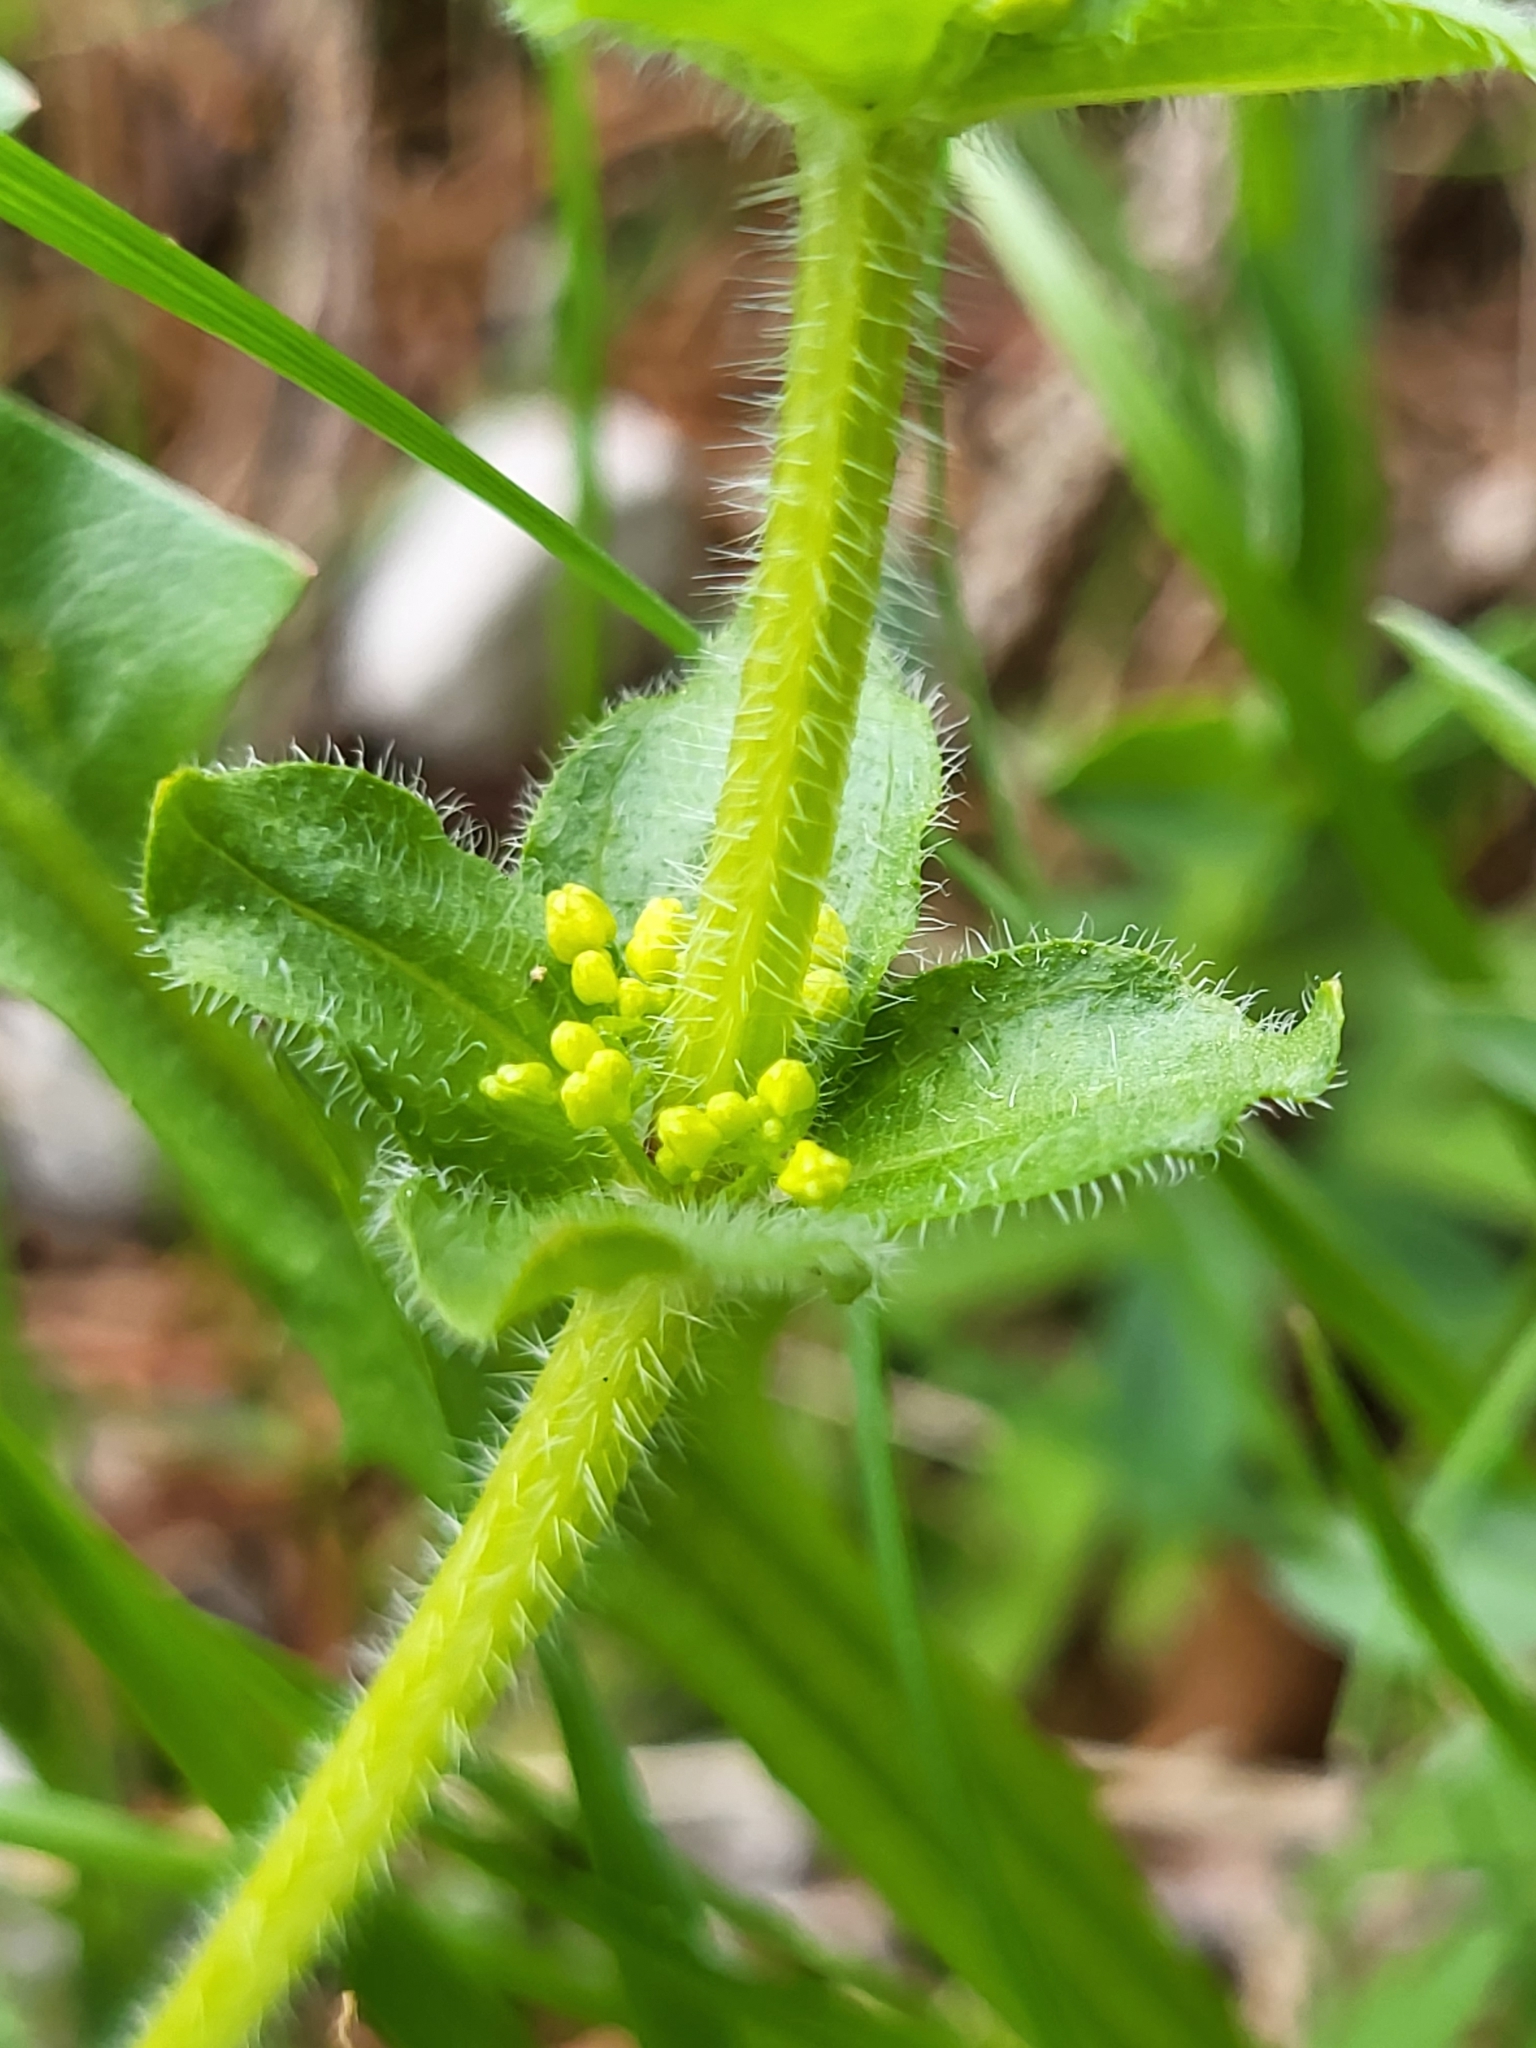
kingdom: Plantae
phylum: Tracheophyta
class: Magnoliopsida
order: Gentianales
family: Rubiaceae
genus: Cruciata
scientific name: Cruciata laevipes
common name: Crosswort
